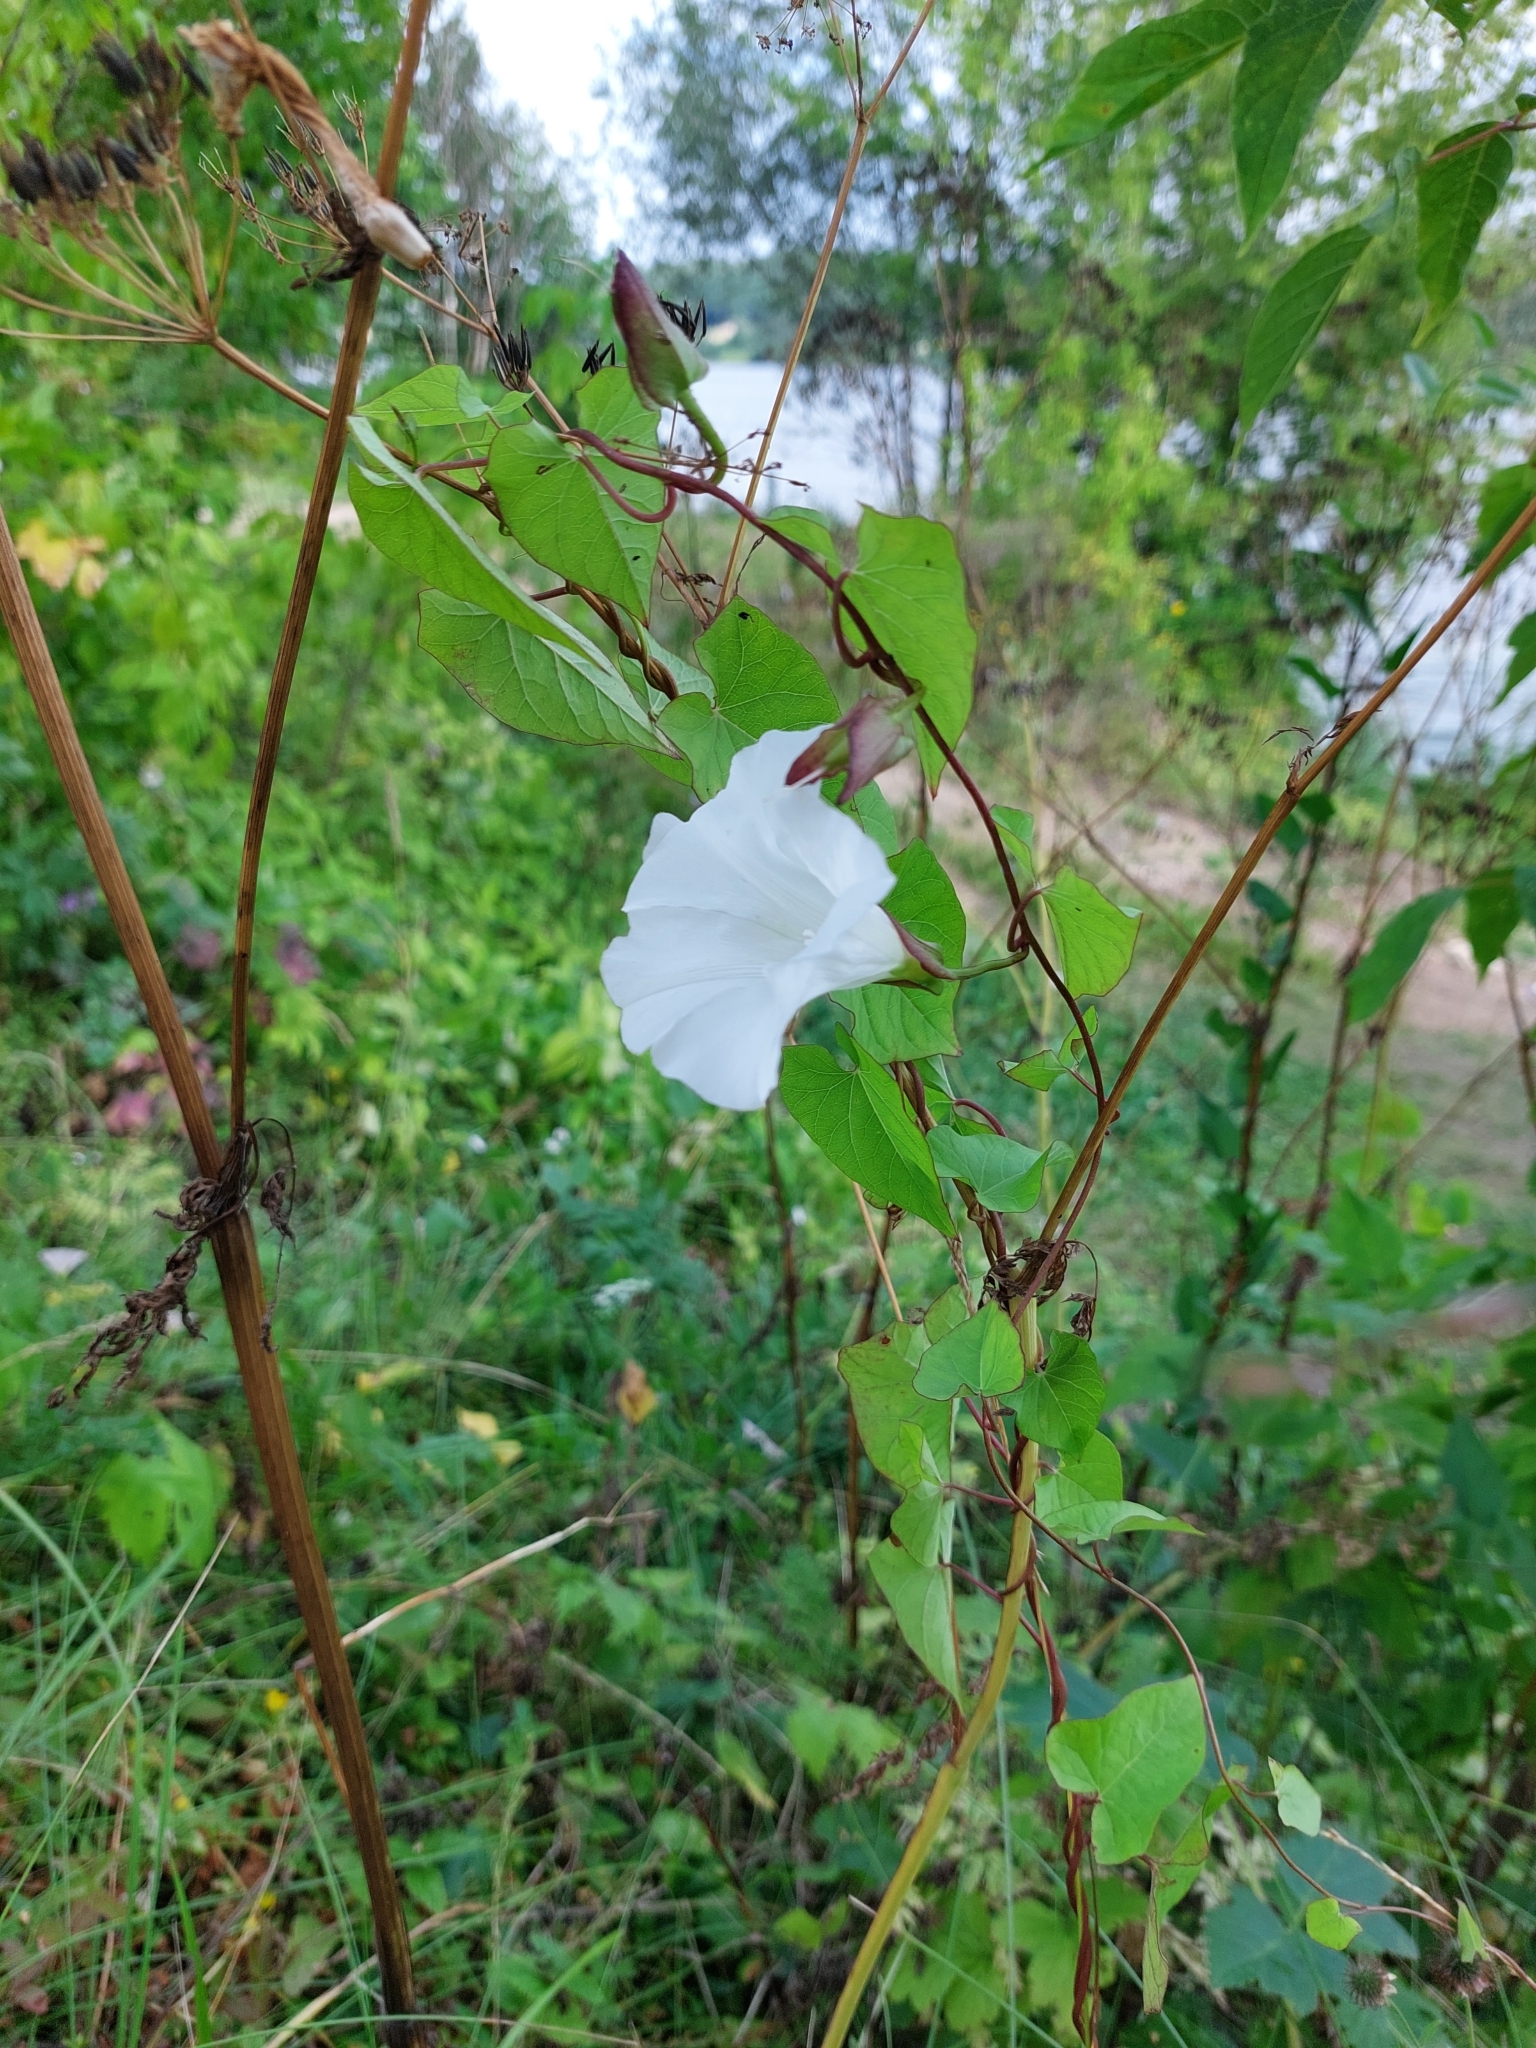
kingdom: Plantae
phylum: Tracheophyta
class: Magnoliopsida
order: Solanales
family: Convolvulaceae
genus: Calystegia
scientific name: Calystegia sepium
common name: Hedge bindweed
